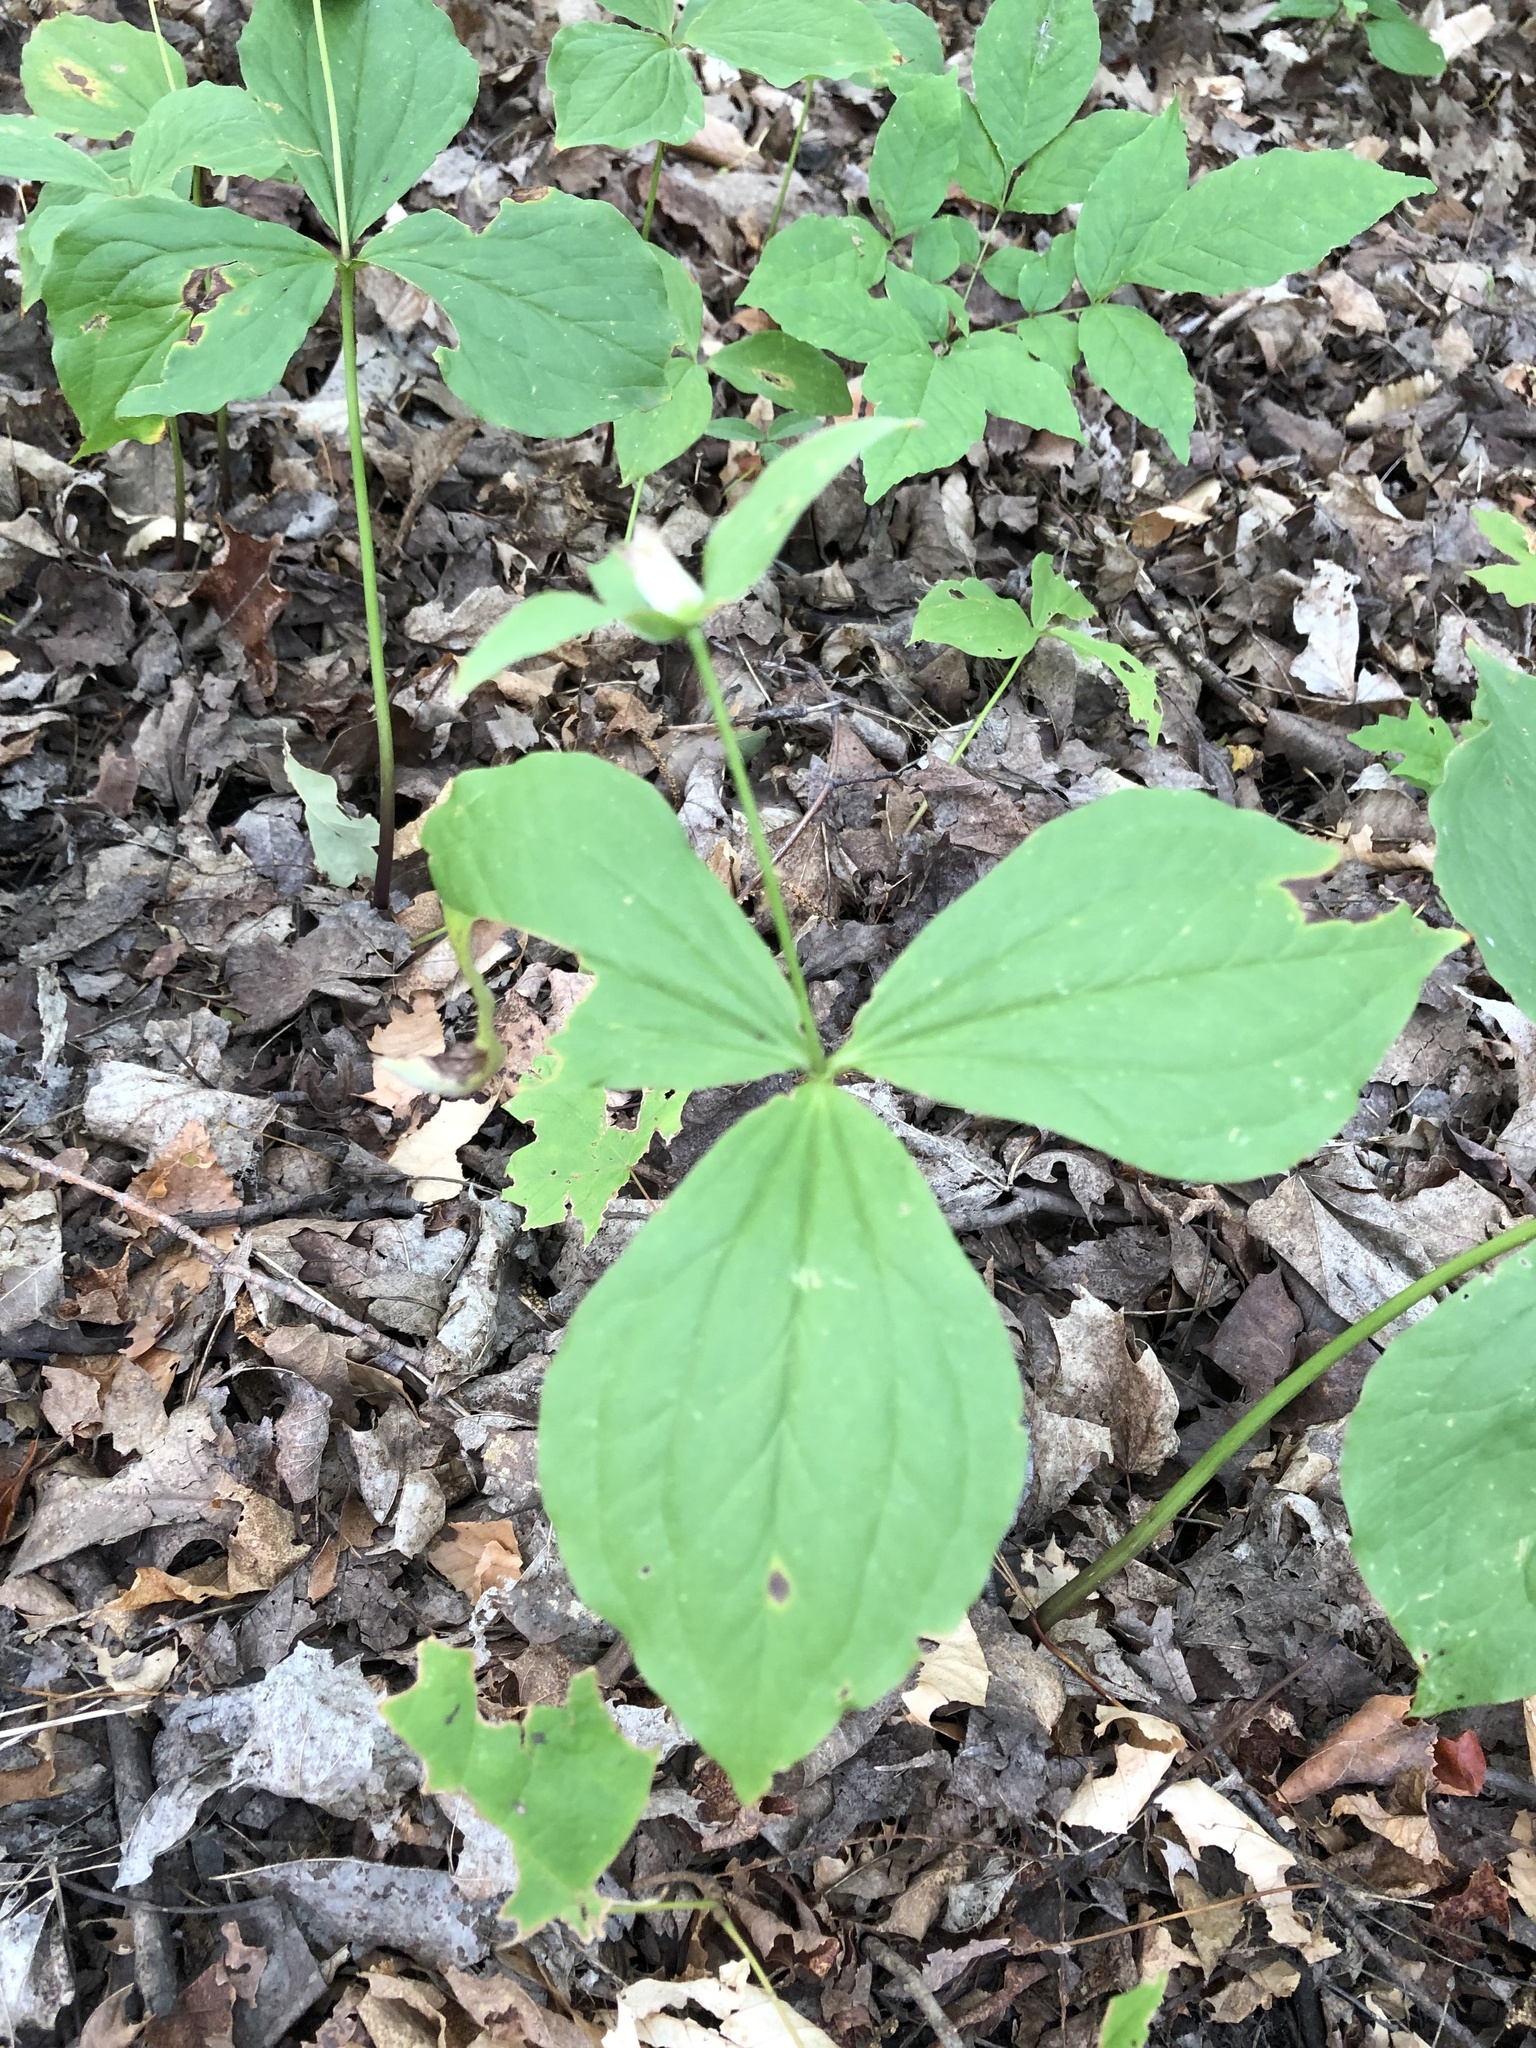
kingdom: Plantae
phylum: Tracheophyta
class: Liliopsida
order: Liliales
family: Melanthiaceae
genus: Trillium
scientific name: Trillium grandiflorum
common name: Great white trillium
